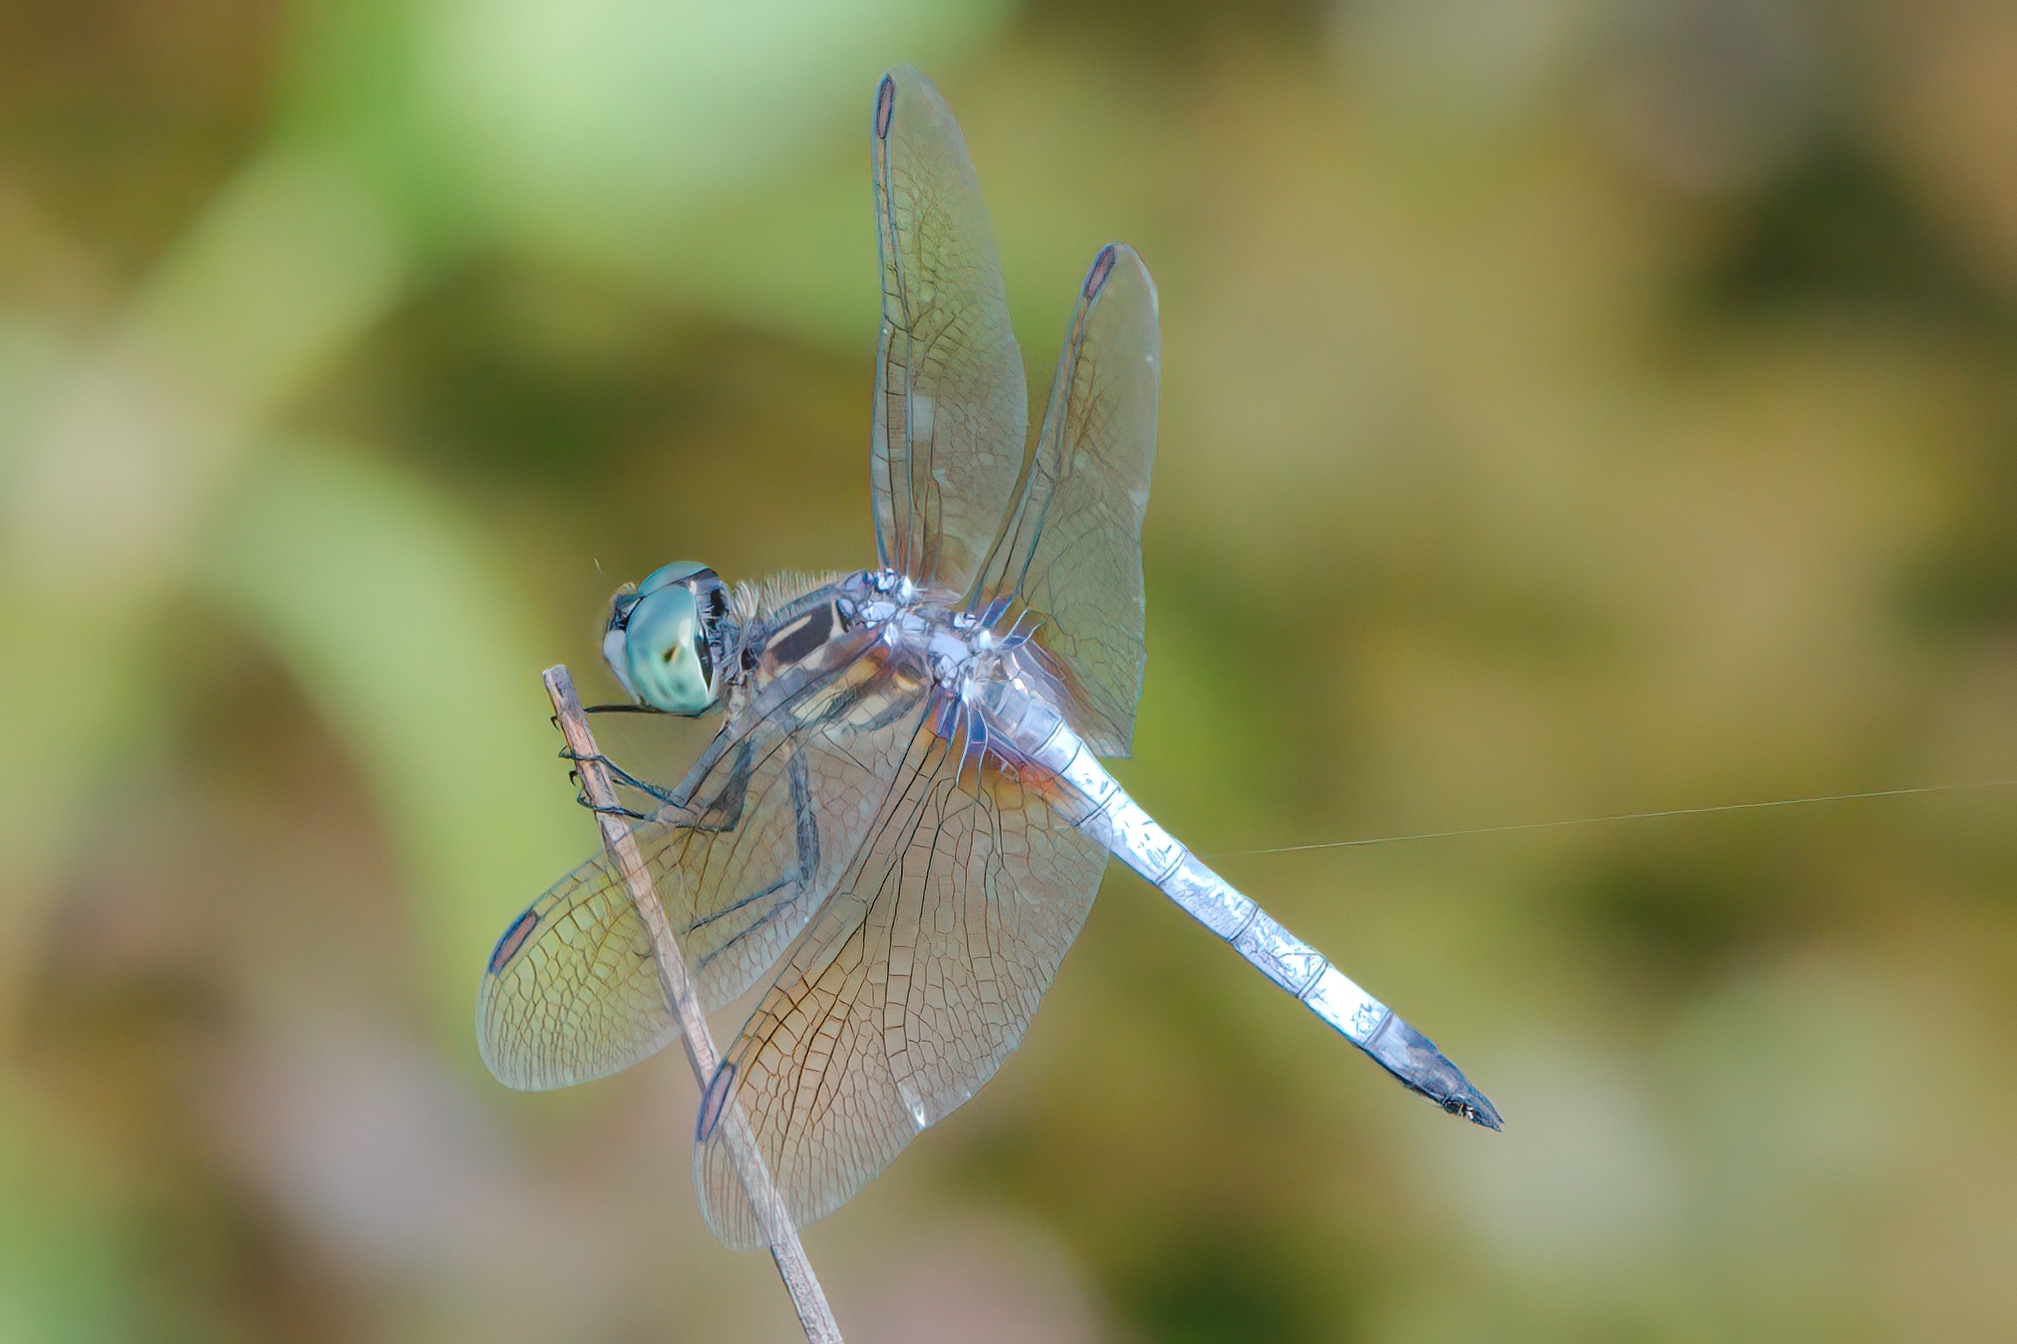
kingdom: Animalia
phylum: Arthropoda
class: Insecta
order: Odonata
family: Libellulidae
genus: Pachydiplax
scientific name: Pachydiplax longipennis
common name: Blue dasher
